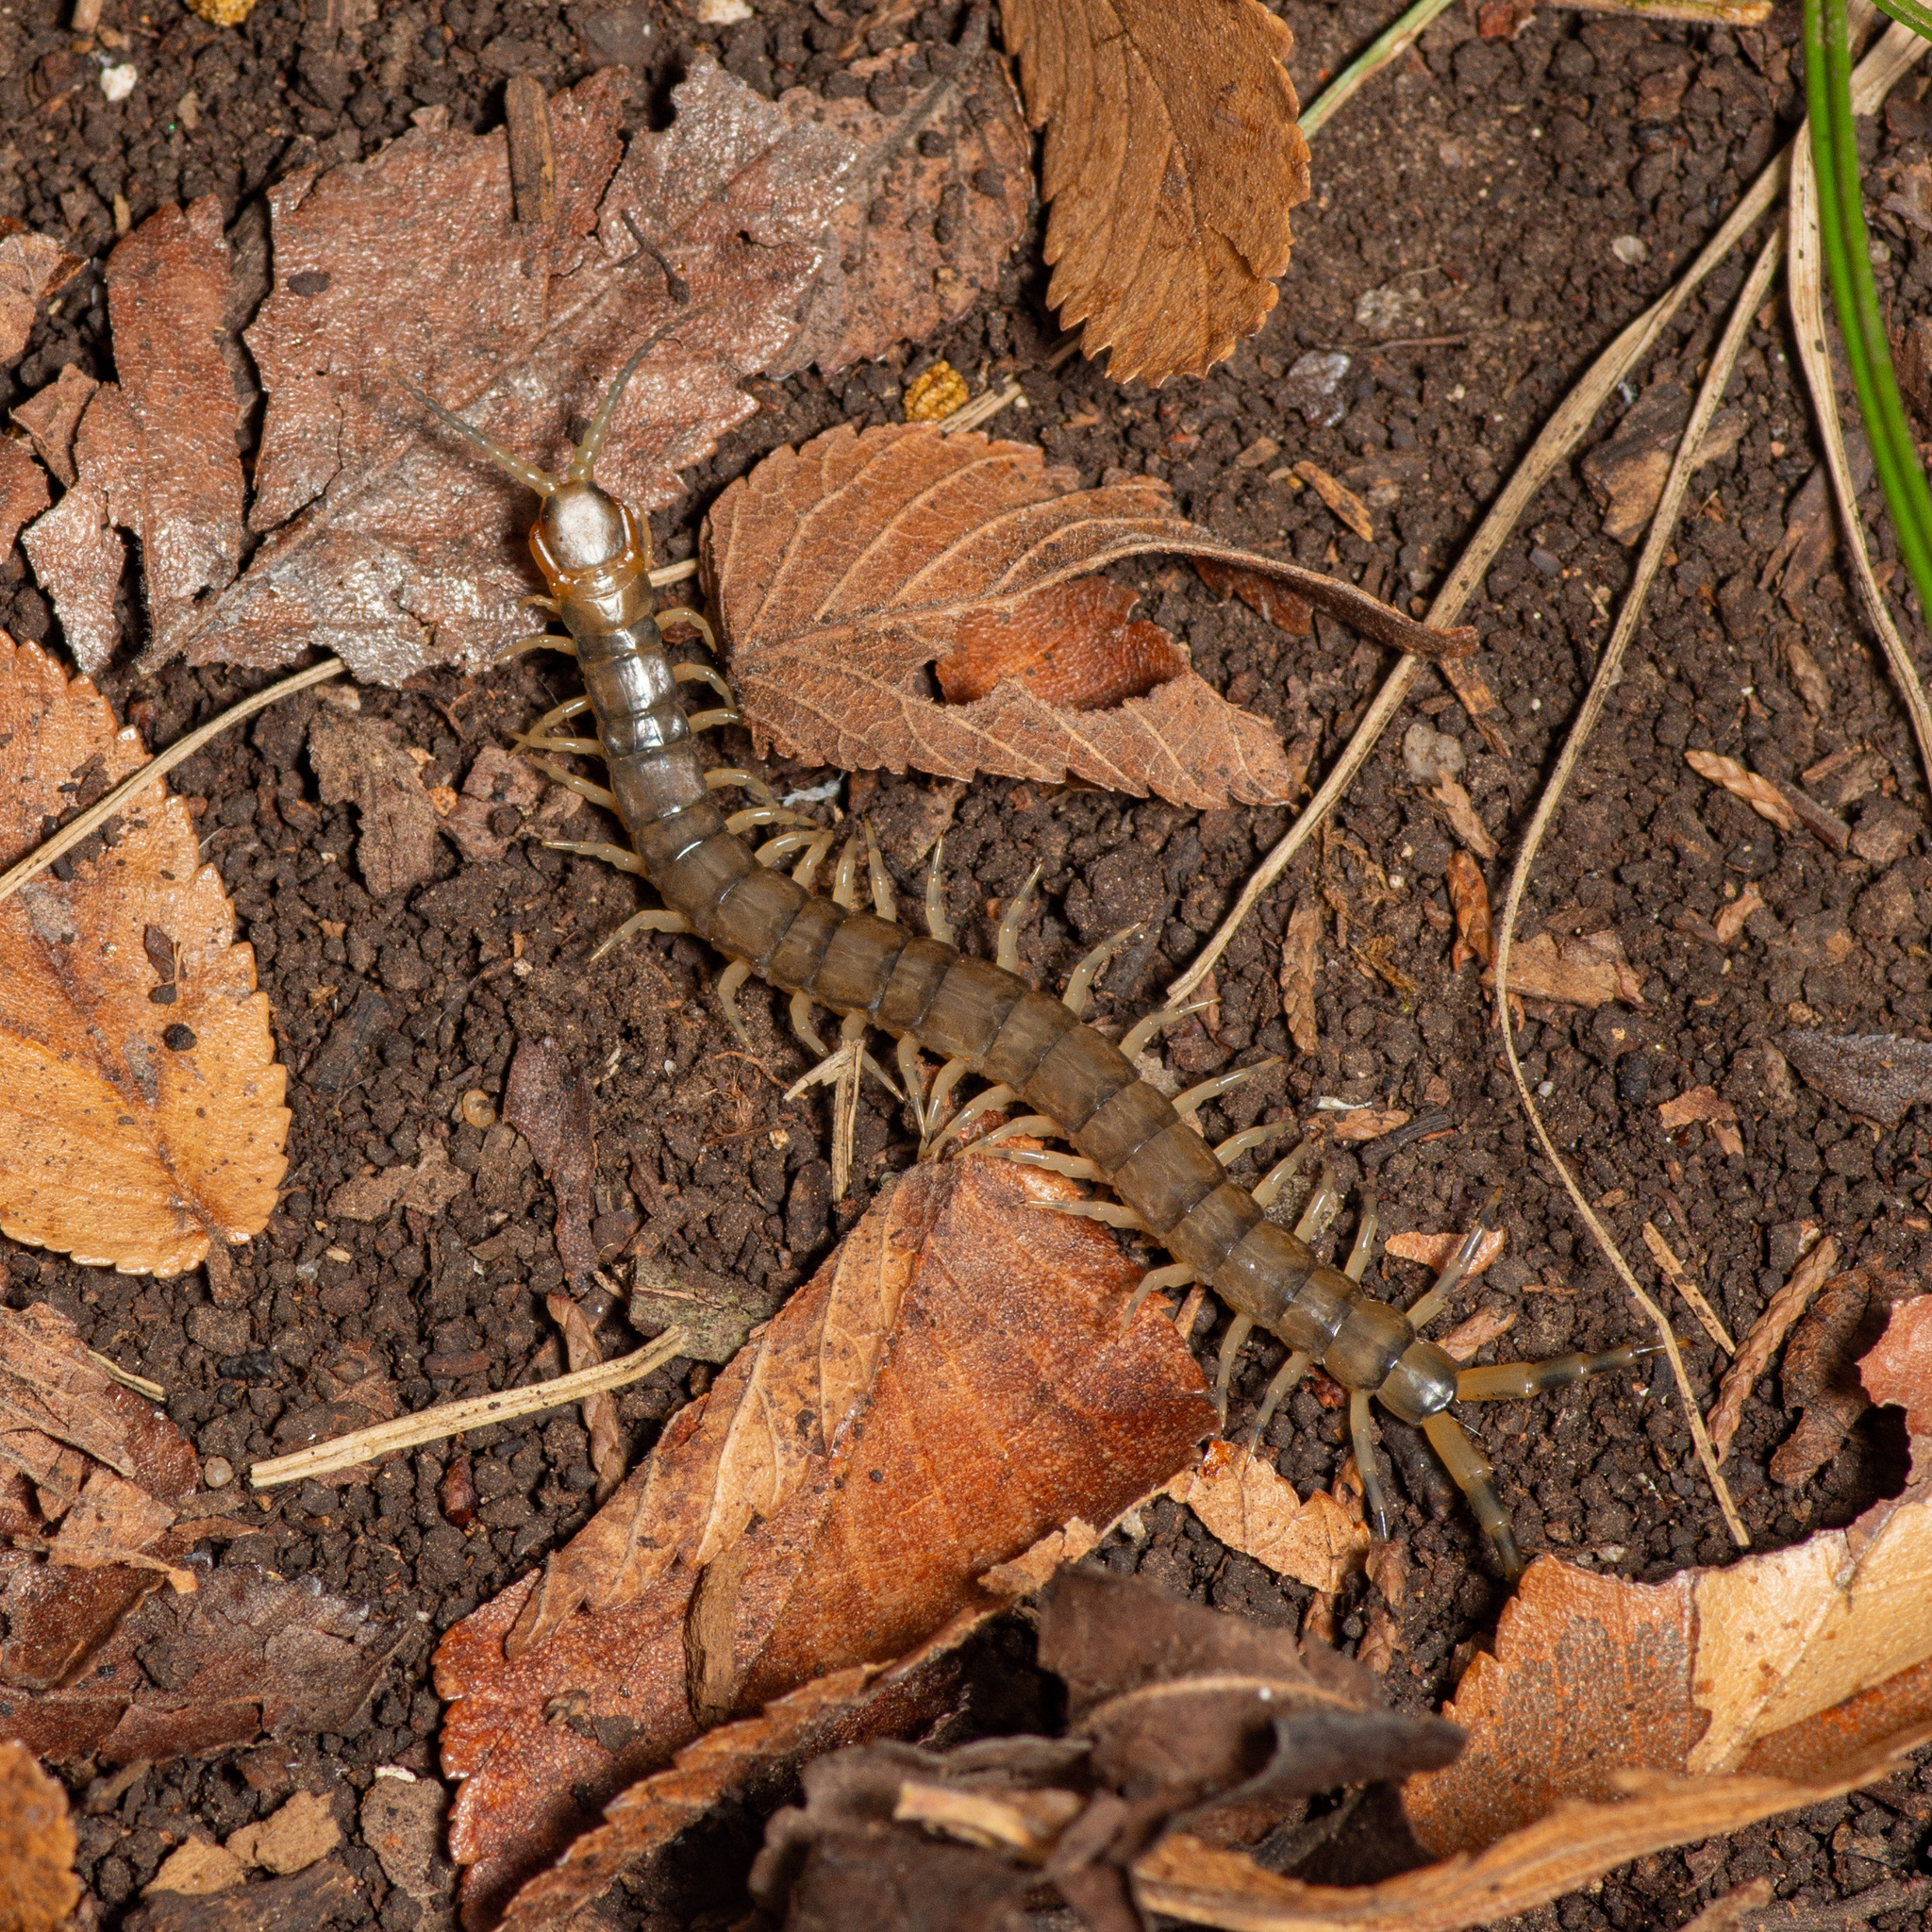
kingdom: Animalia
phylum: Arthropoda
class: Chilopoda
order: Scolopendromorpha
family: Scolopendridae
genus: Hemiscolopendra
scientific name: Hemiscolopendra marginata
